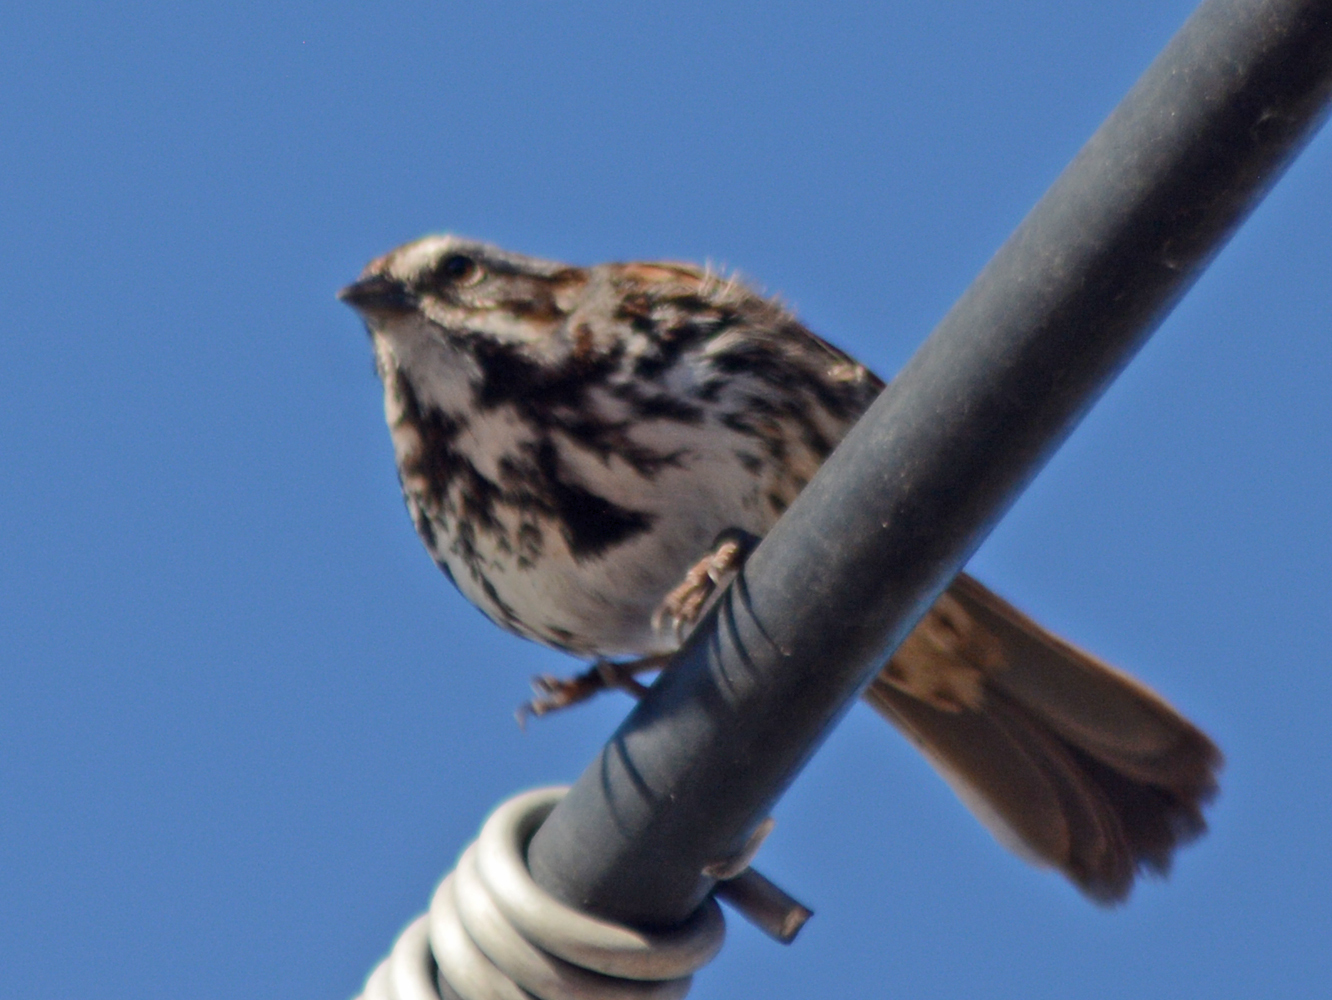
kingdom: Animalia
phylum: Chordata
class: Aves
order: Passeriformes
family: Passerellidae
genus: Melospiza
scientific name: Melospiza melodia
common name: Song sparrow
